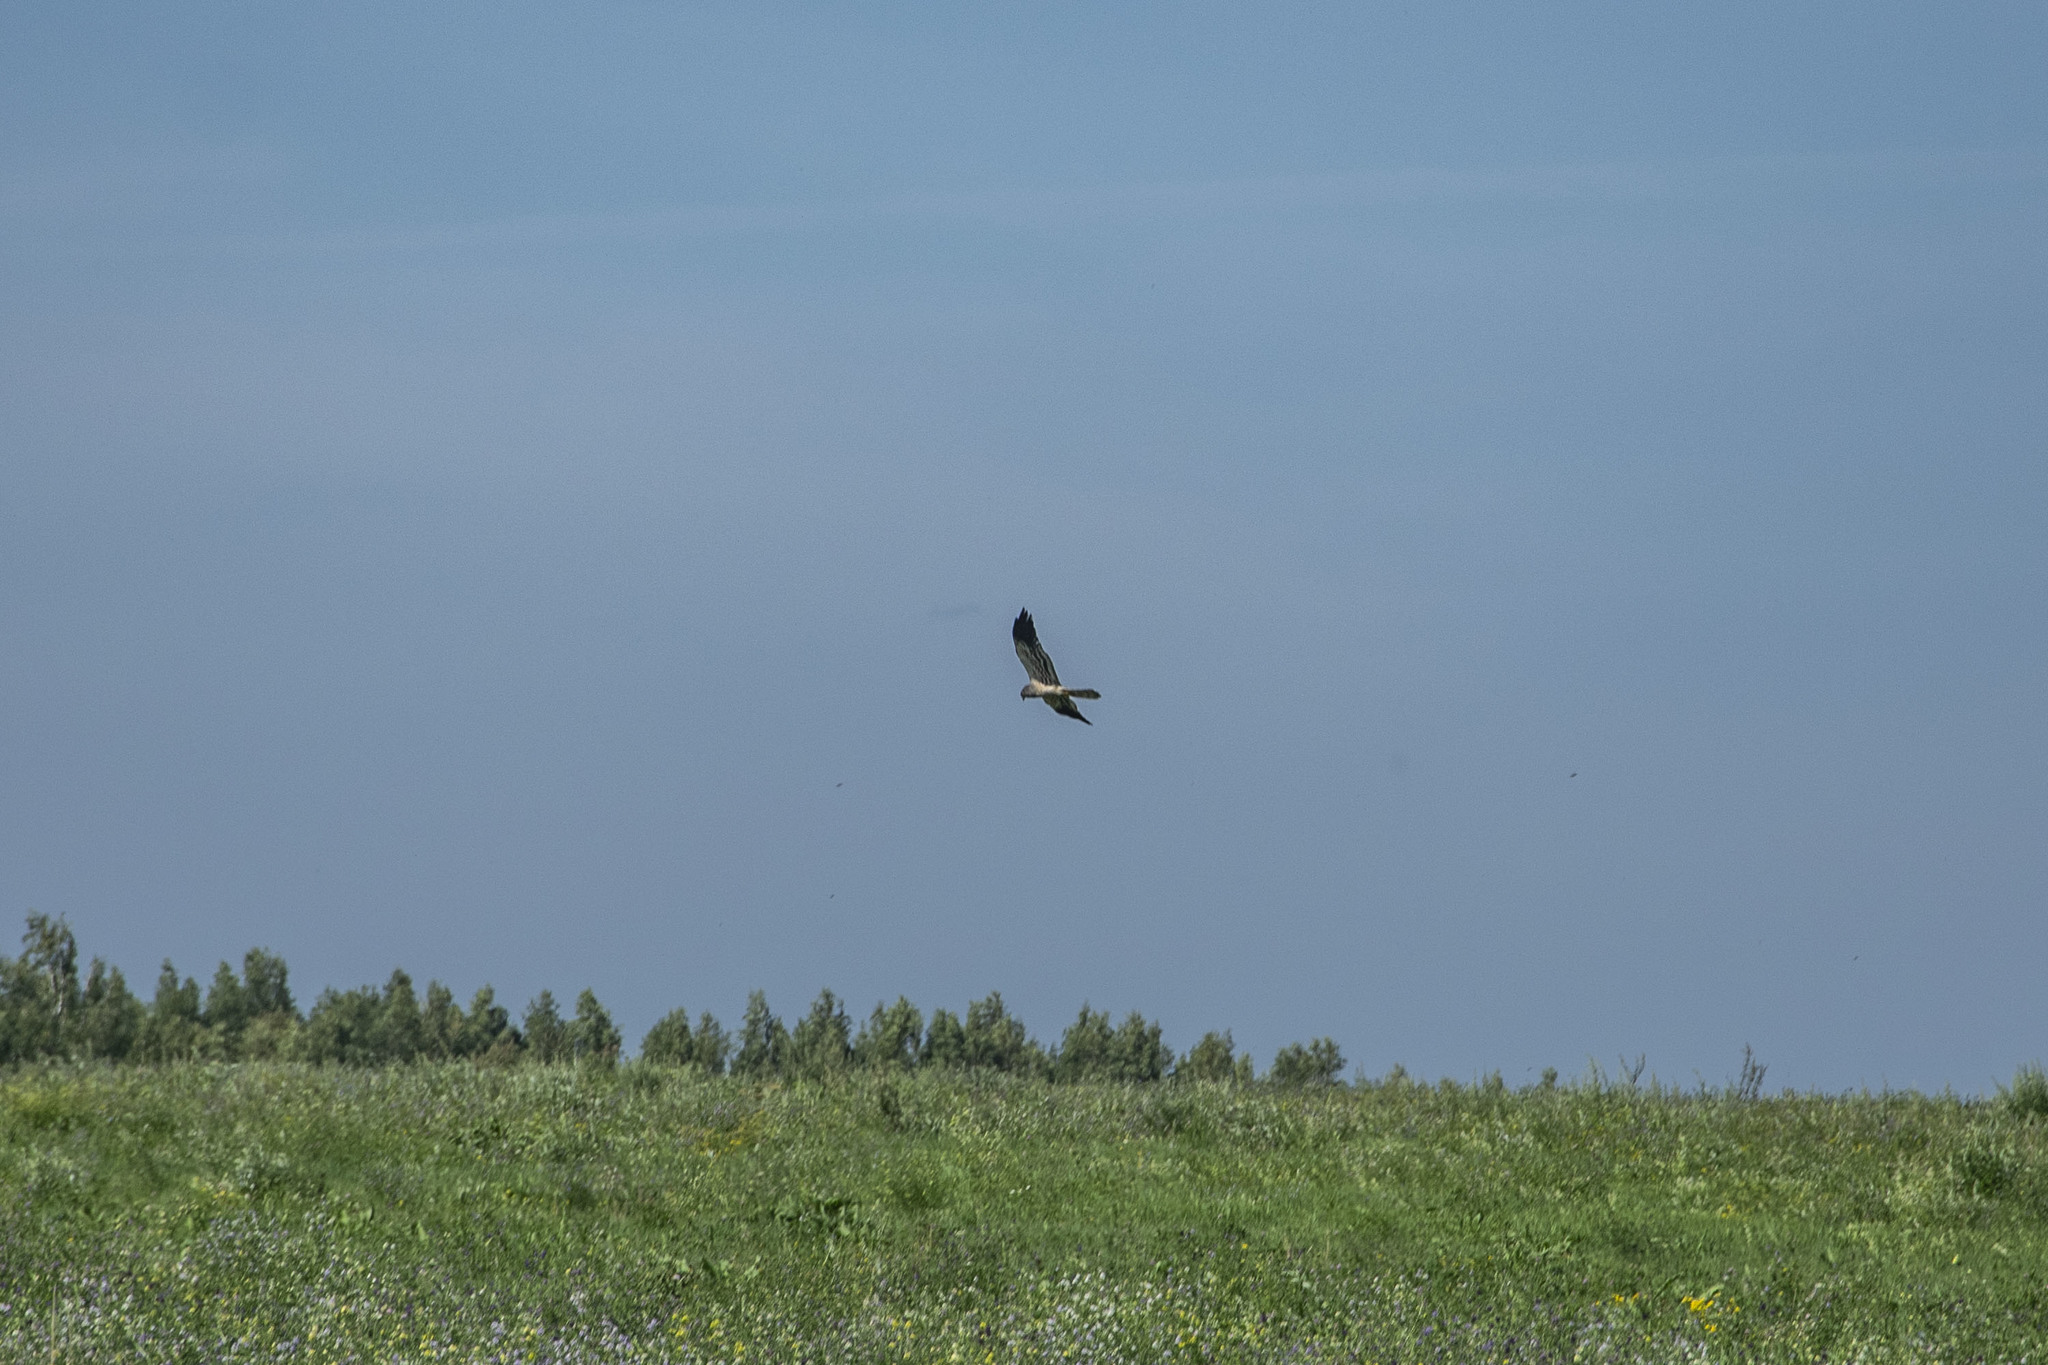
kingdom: Animalia
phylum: Chordata
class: Aves
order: Accipitriformes
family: Accipitridae
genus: Circus
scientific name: Circus pygargus
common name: Montagu's harrier
